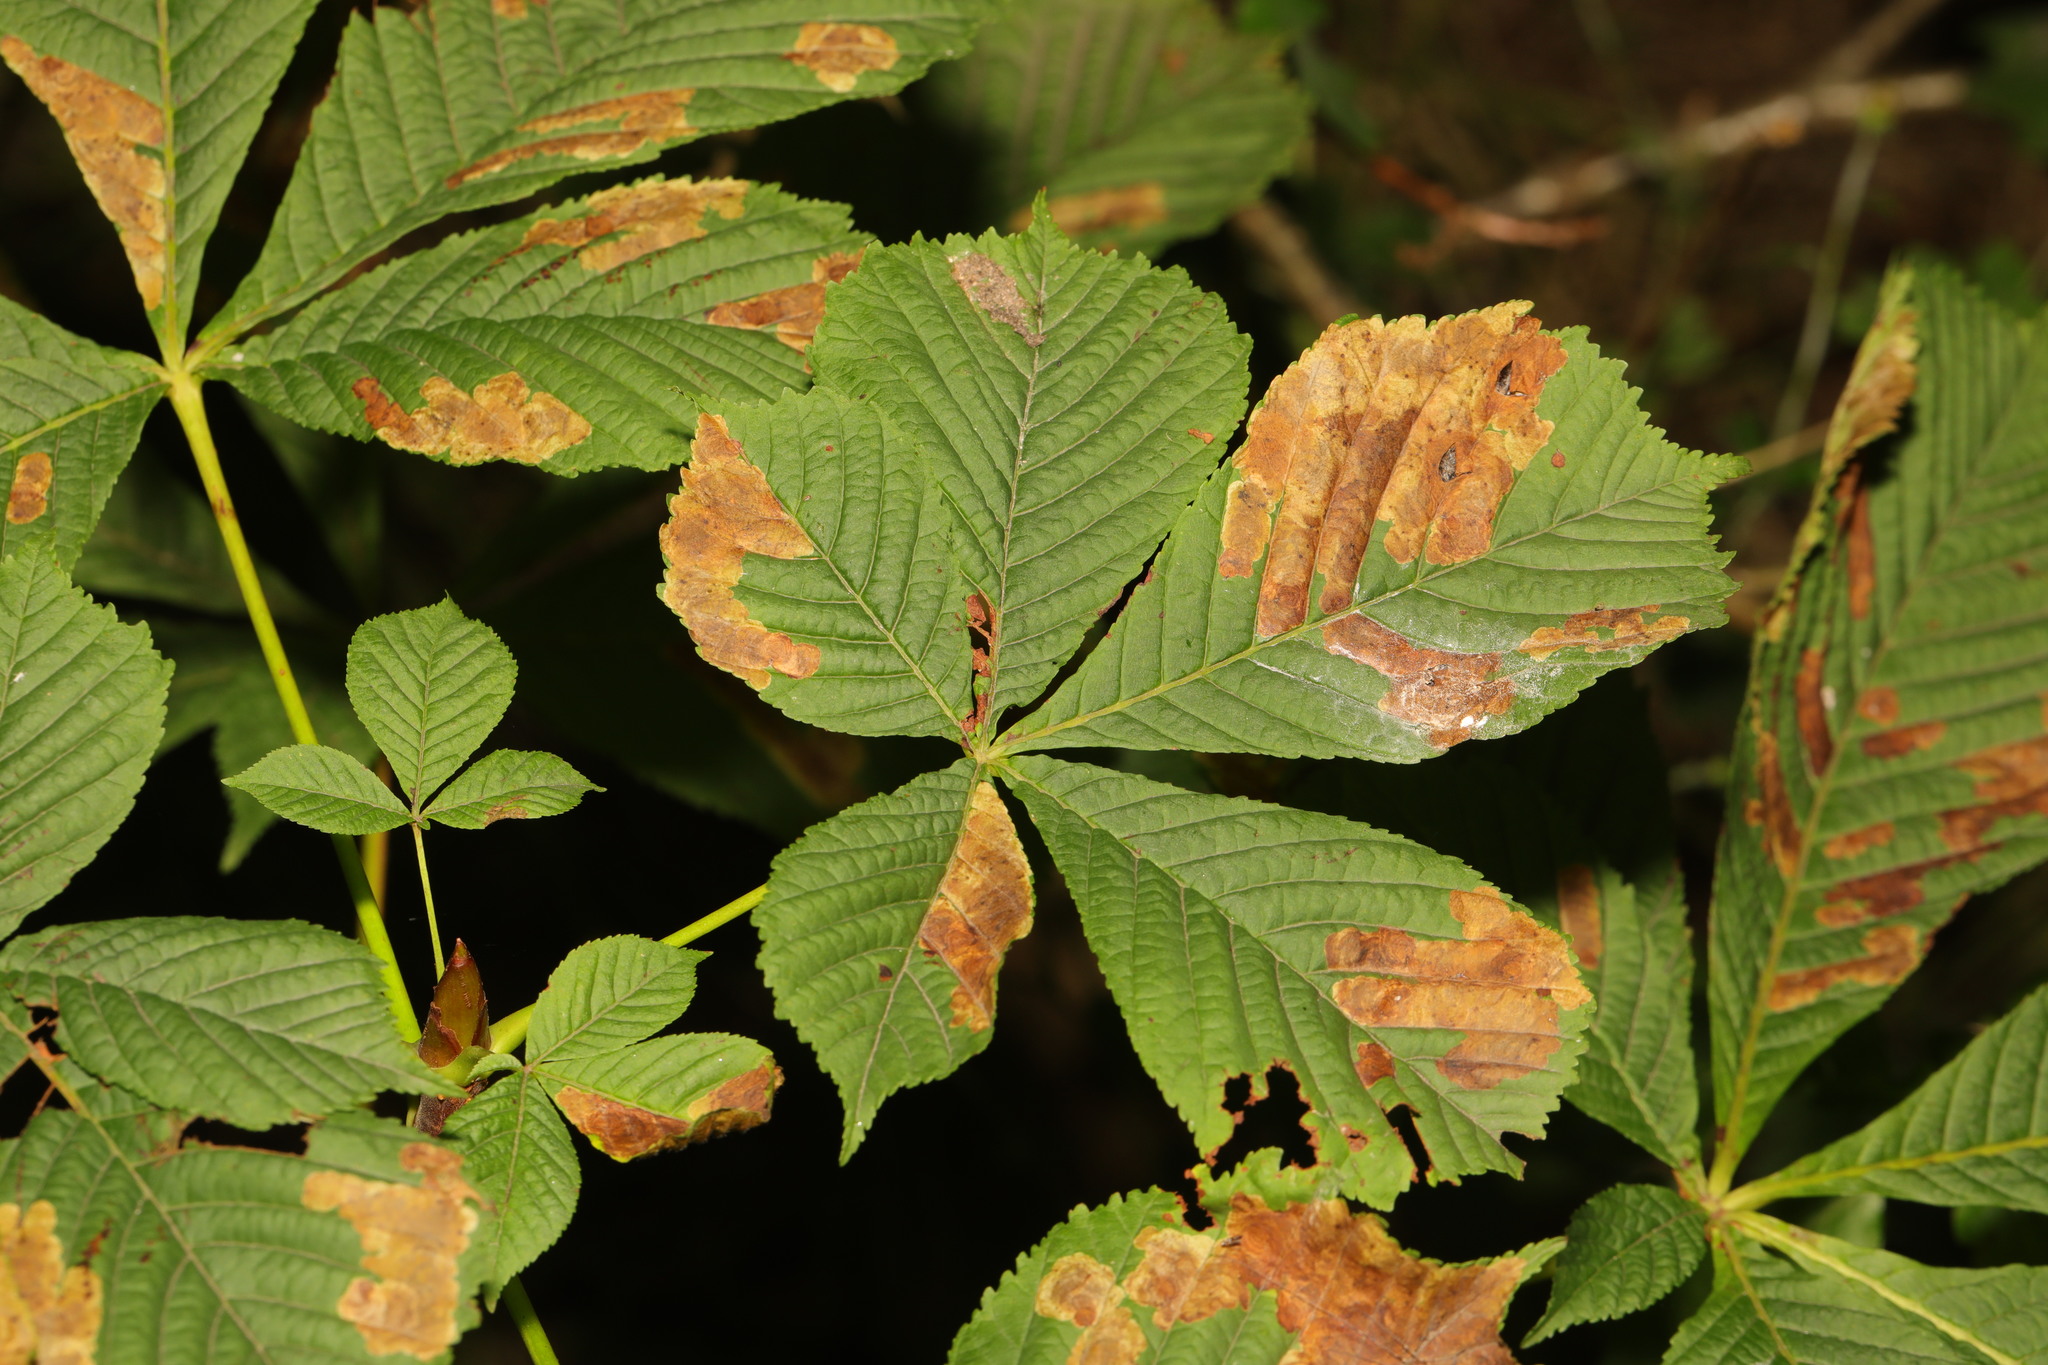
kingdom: Plantae
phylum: Tracheophyta
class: Magnoliopsida
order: Sapindales
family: Sapindaceae
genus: Aesculus
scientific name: Aesculus hippocastanum
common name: Horse-chestnut
